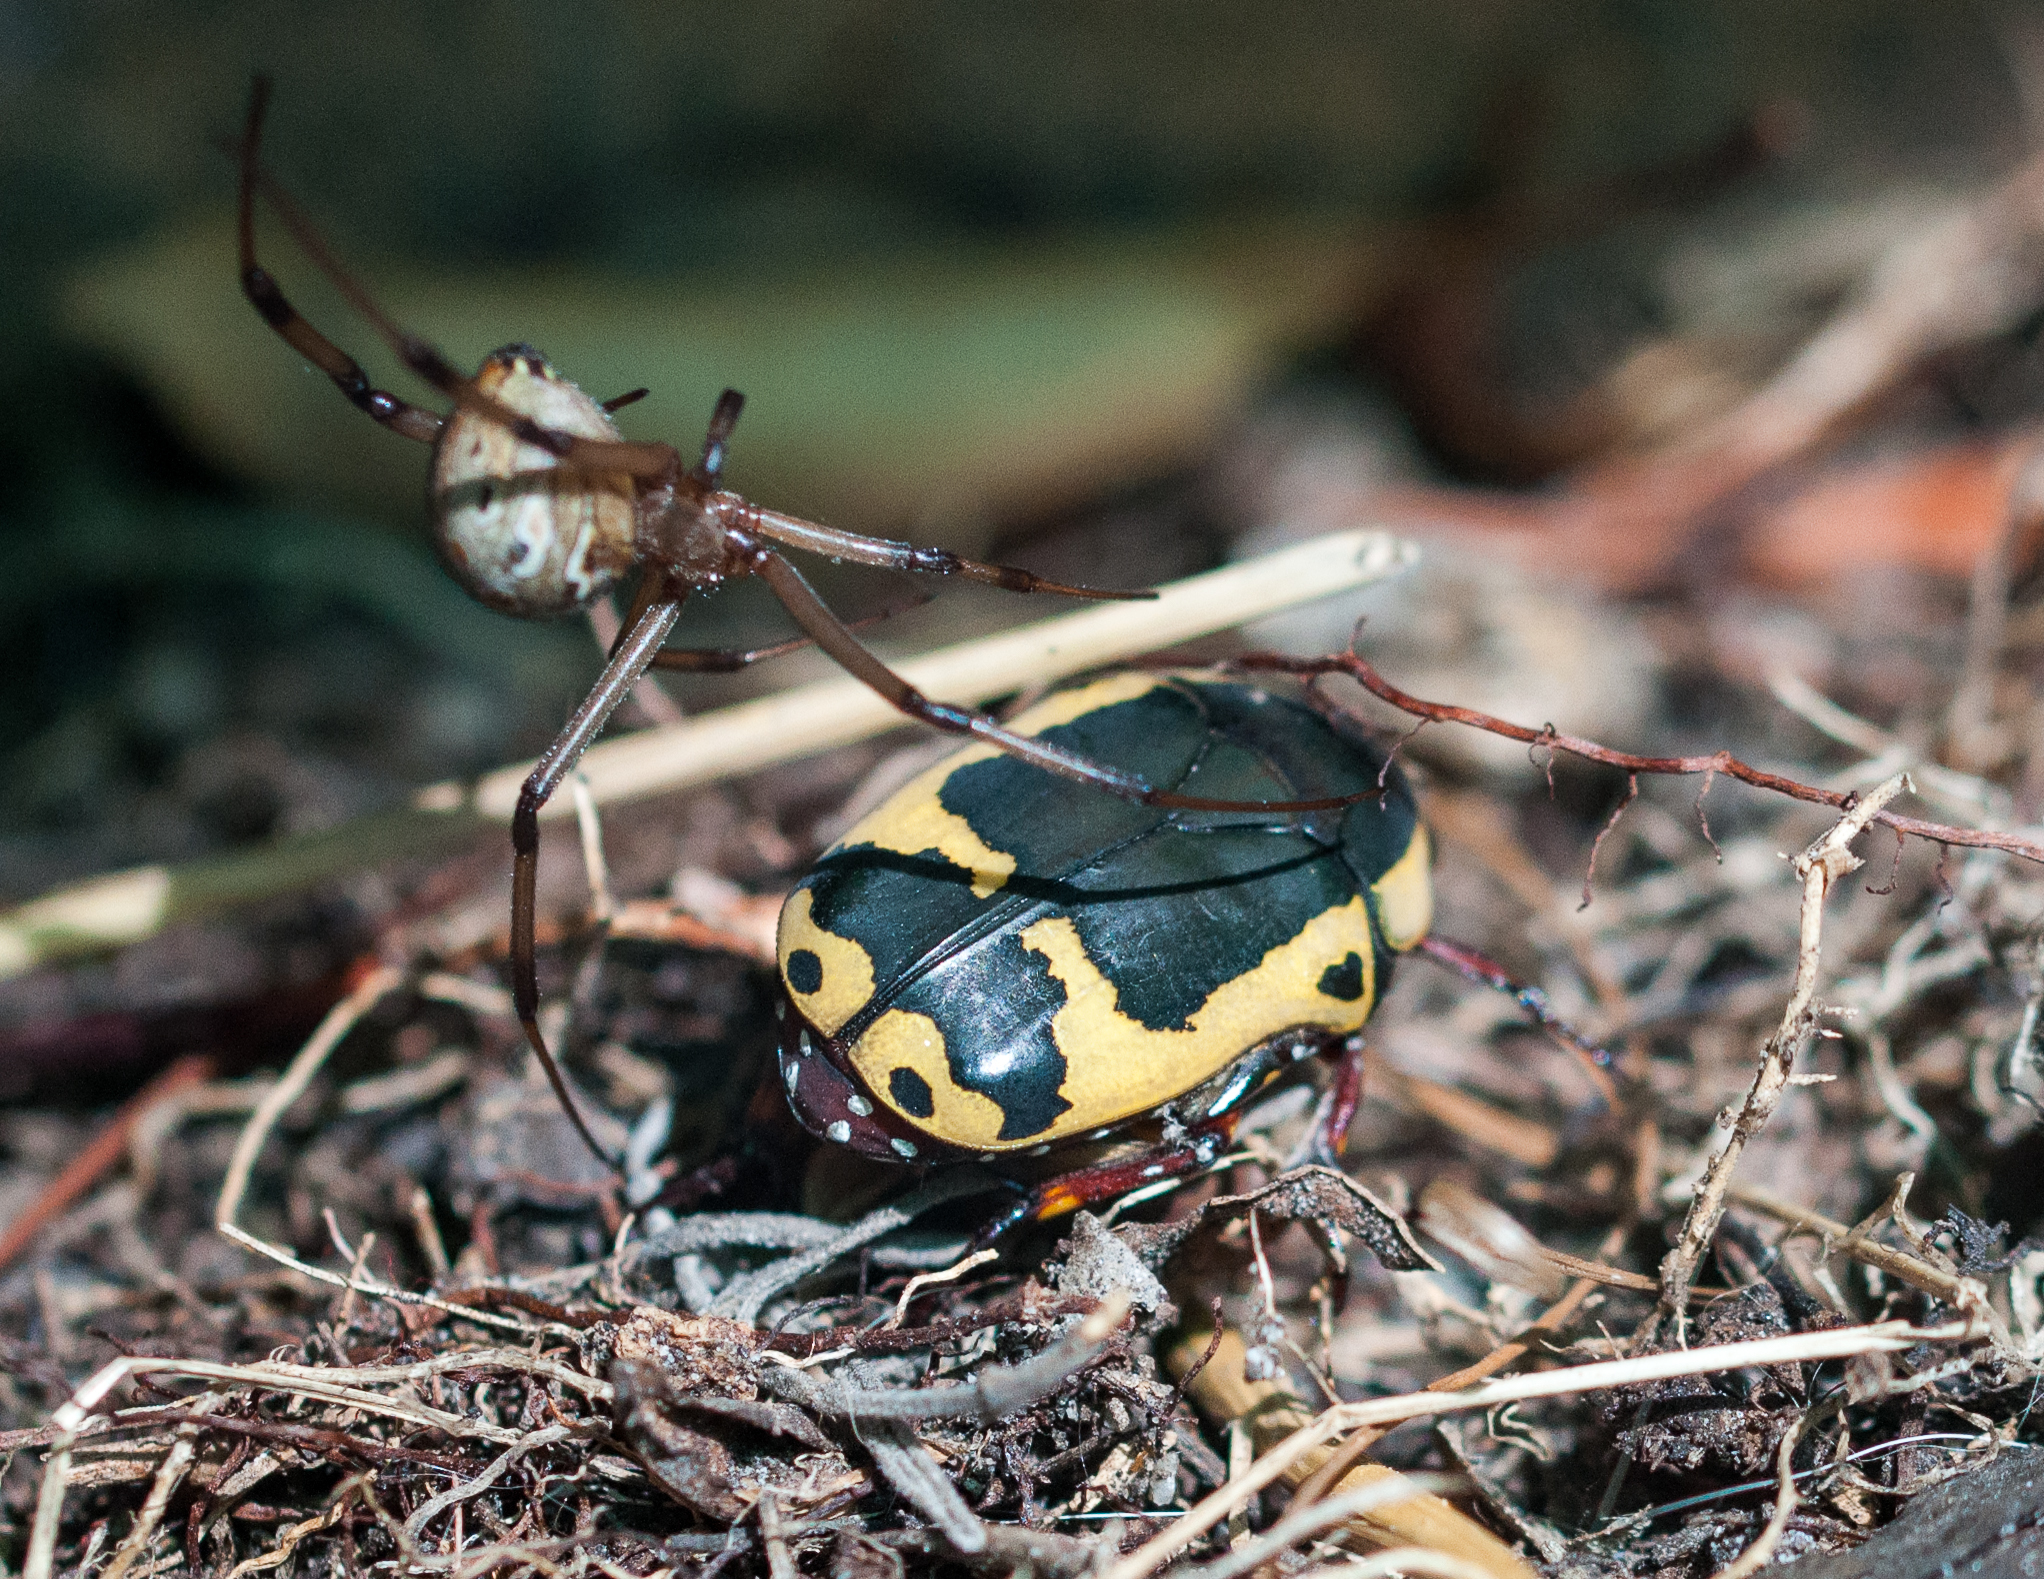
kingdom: Animalia
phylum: Arthropoda
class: Insecta
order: Coleoptera
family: Scarabaeidae
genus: Pachnoda
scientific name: Pachnoda sinuata
